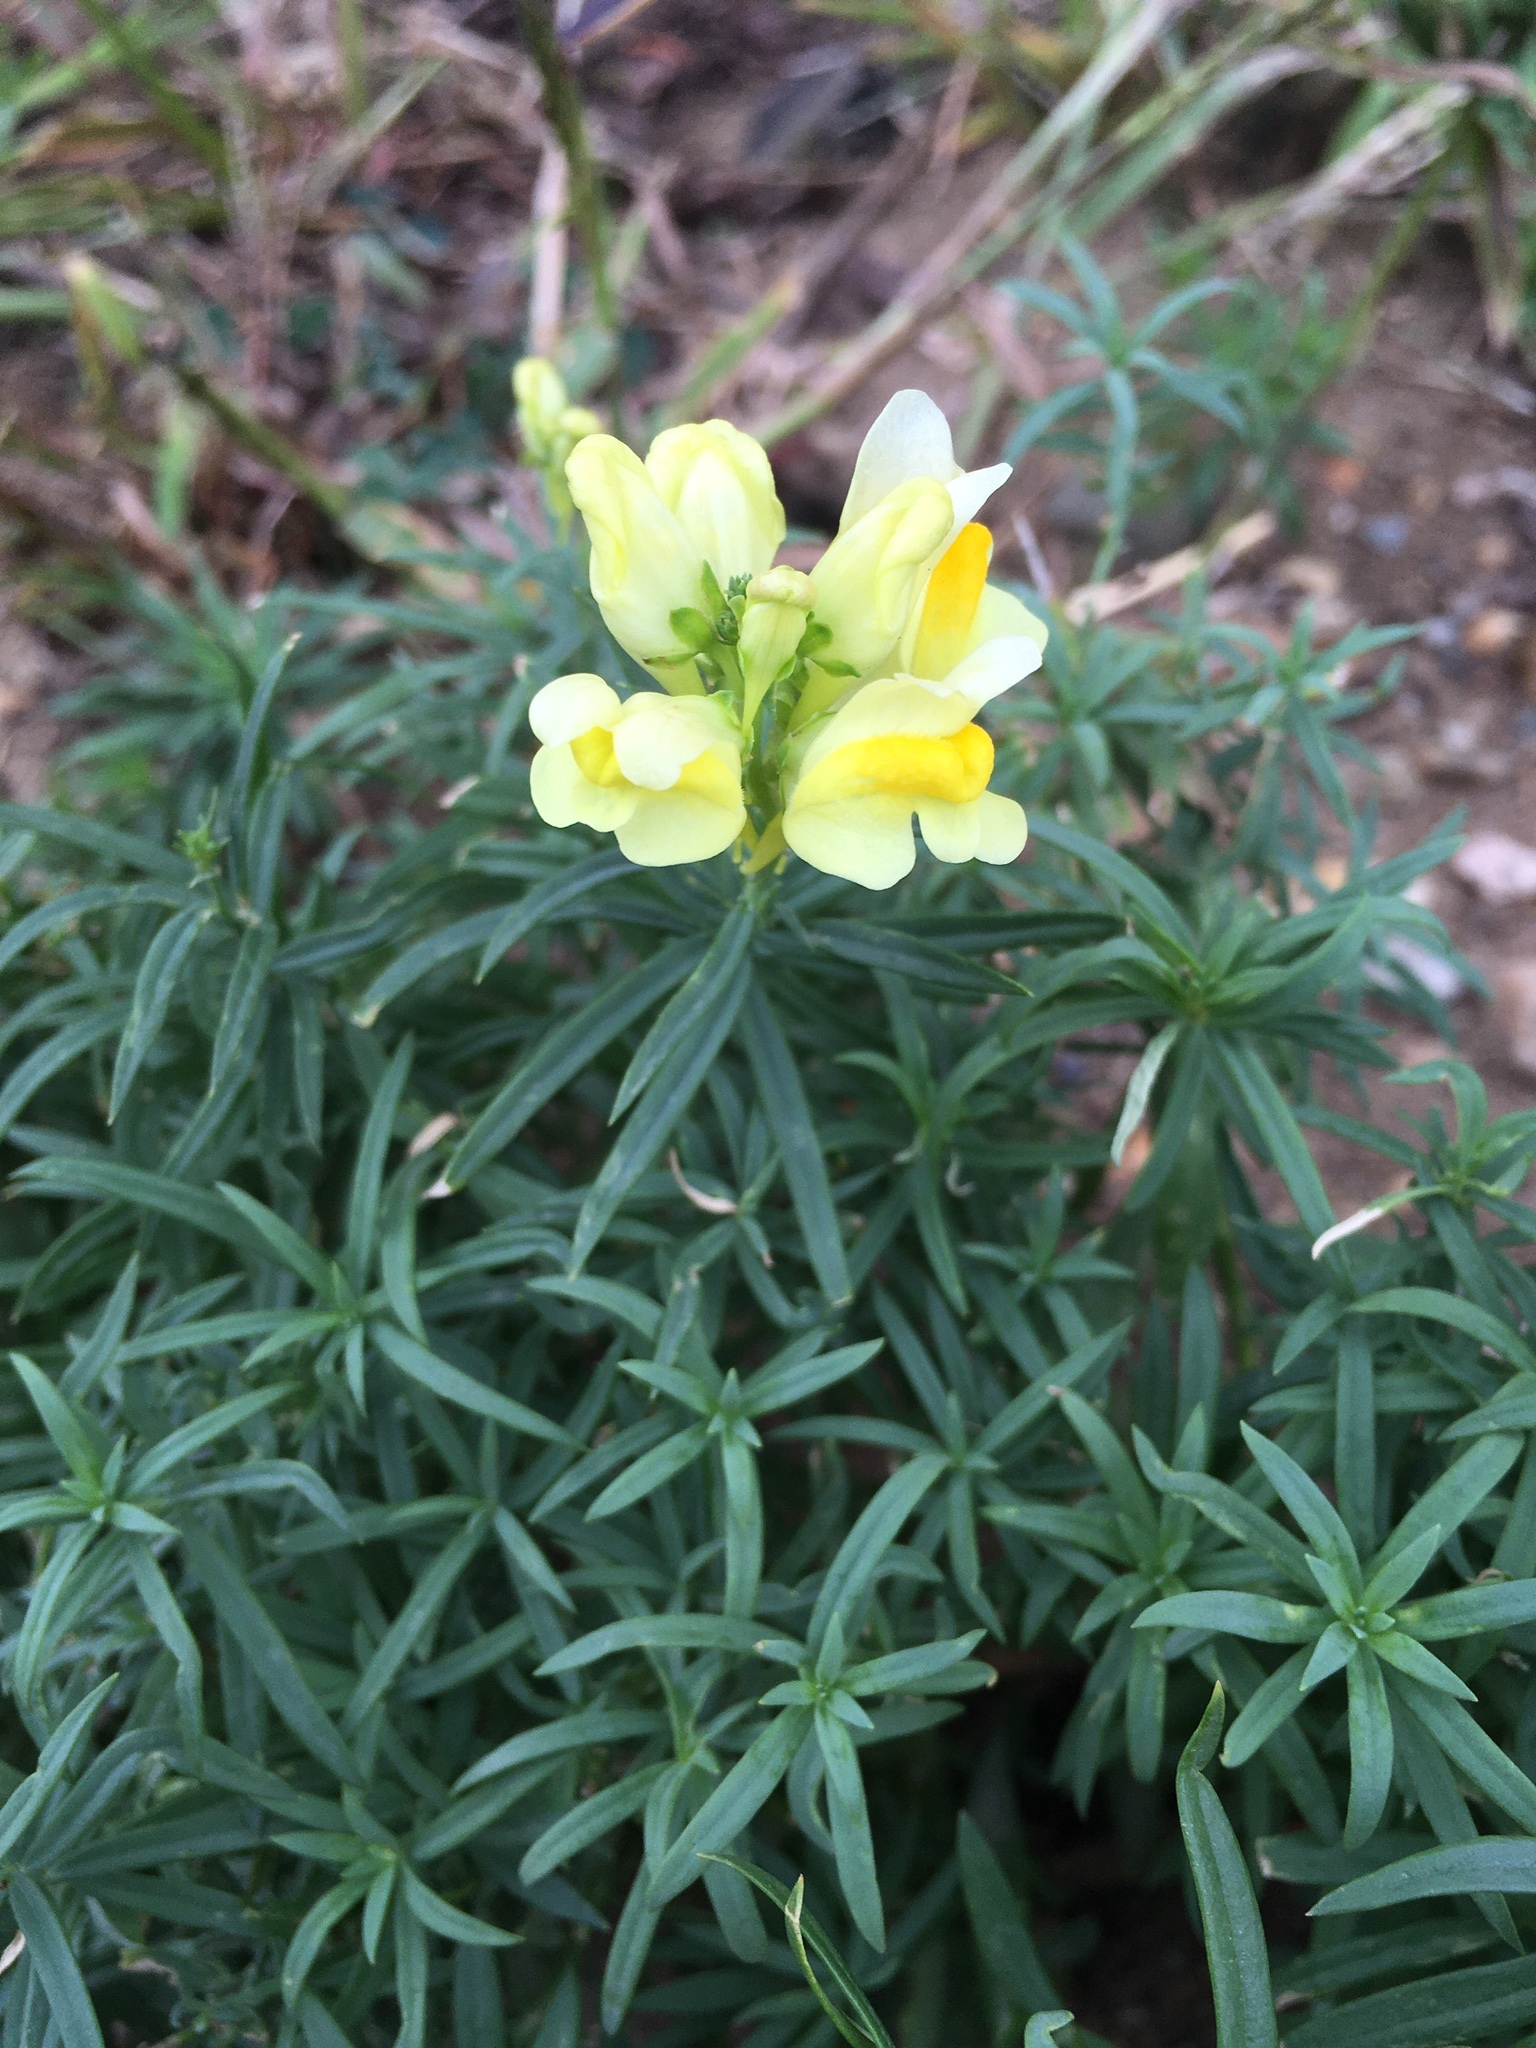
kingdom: Plantae
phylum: Tracheophyta
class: Magnoliopsida
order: Lamiales
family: Plantaginaceae
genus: Linaria
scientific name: Linaria vulgaris
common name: Butter and eggs
